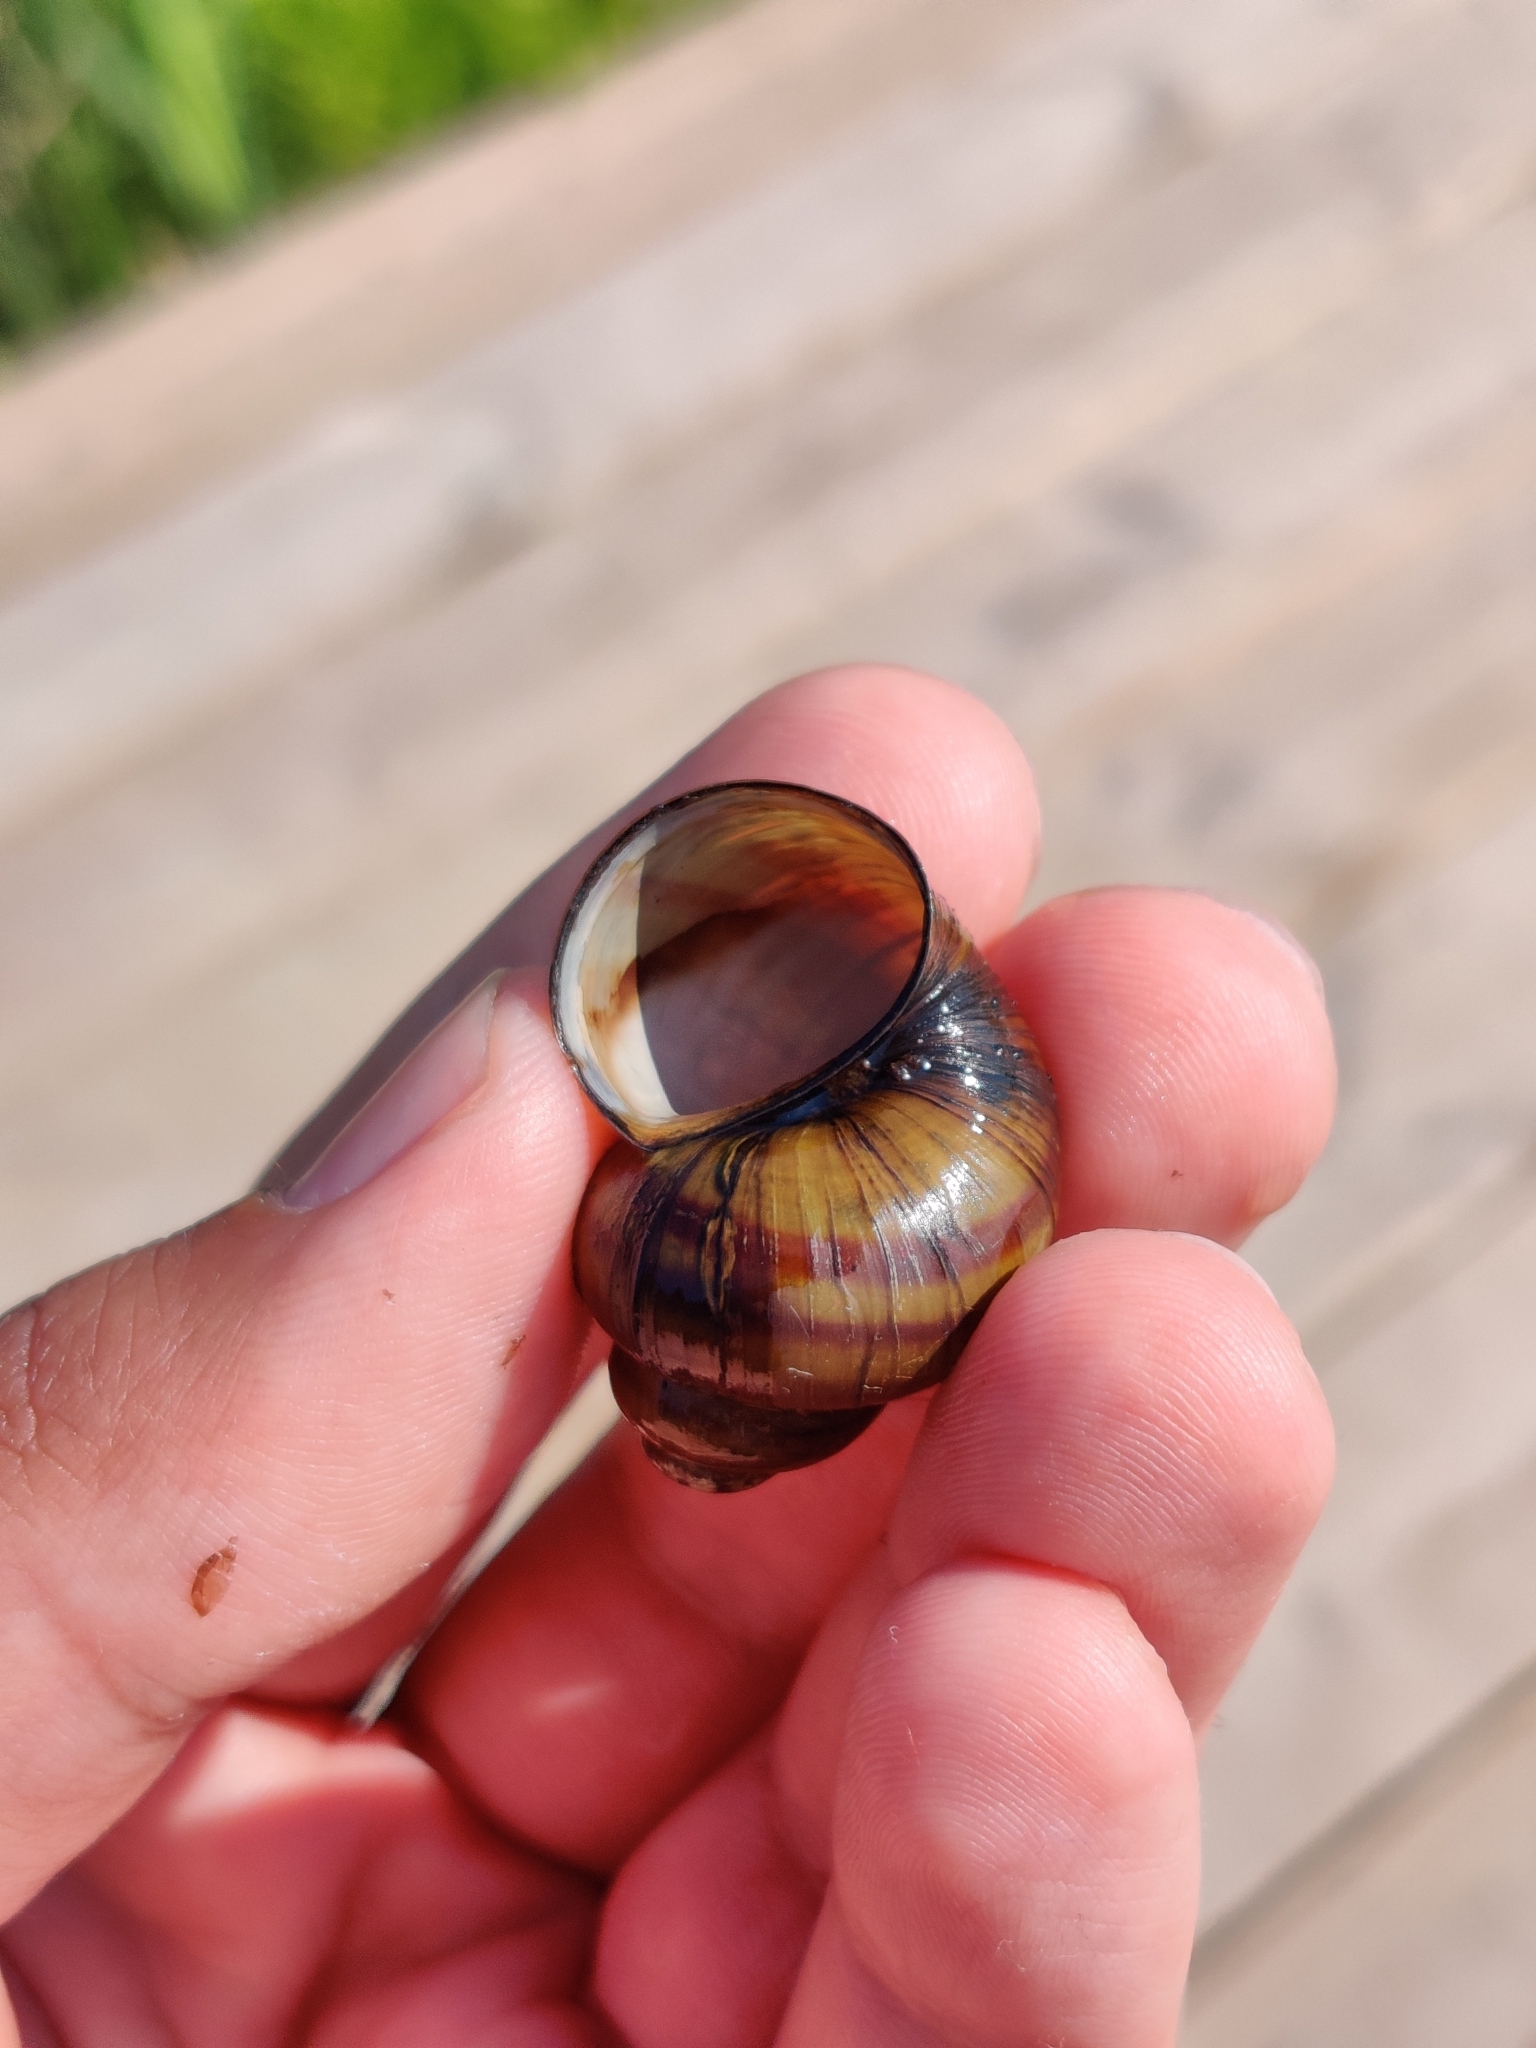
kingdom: Animalia
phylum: Mollusca
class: Gastropoda
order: Architaenioglossa
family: Viviparidae
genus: Viviparus
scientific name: Viviparus contectus
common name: Lister's river snail
